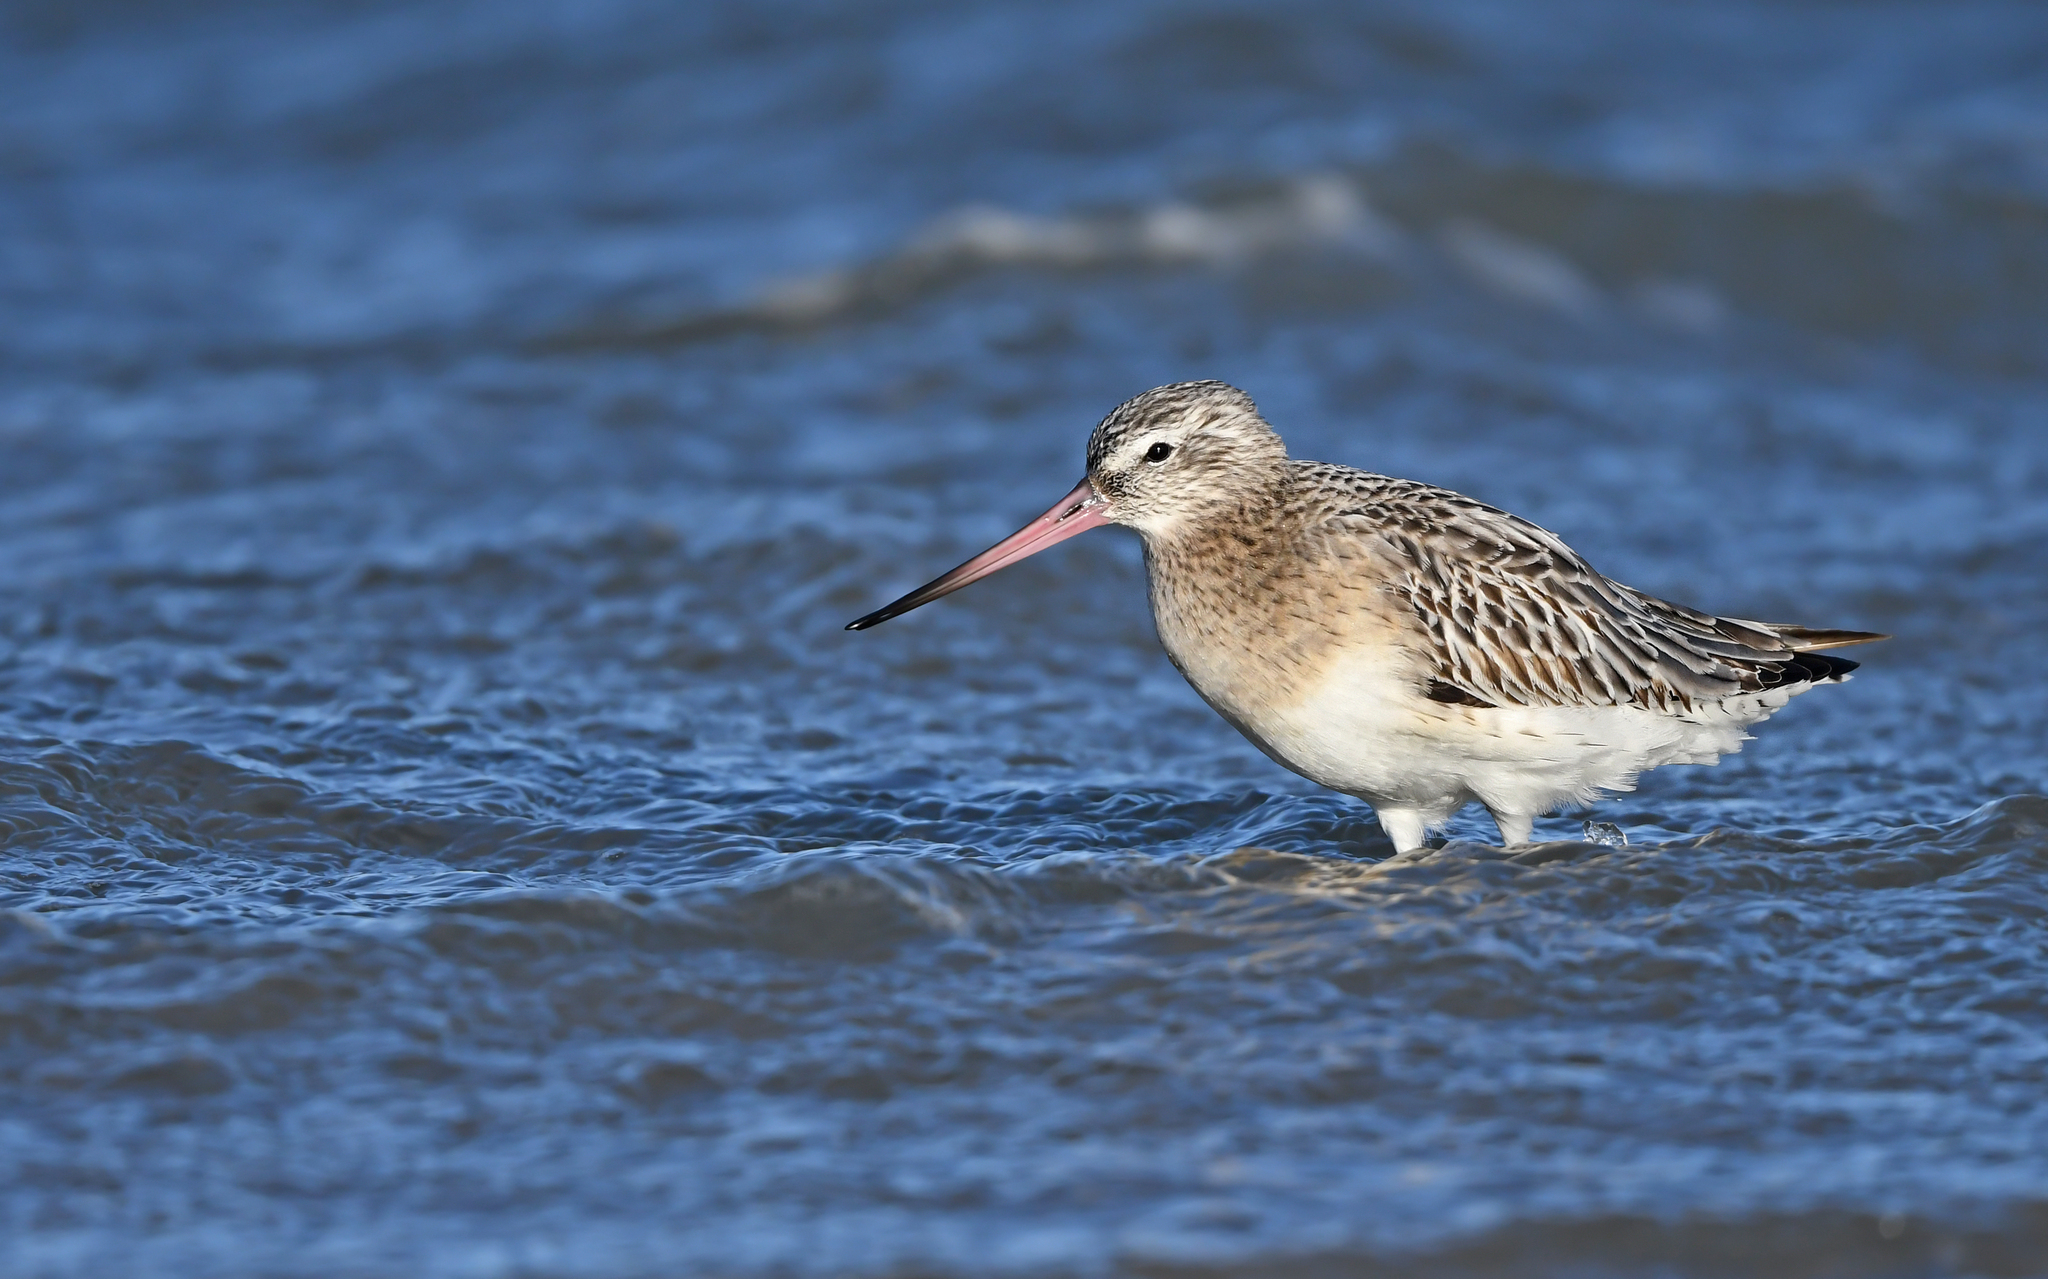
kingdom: Animalia
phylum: Chordata
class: Aves
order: Charadriiformes
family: Scolopacidae
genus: Limosa
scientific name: Limosa lapponica
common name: Bar-tailed godwit
